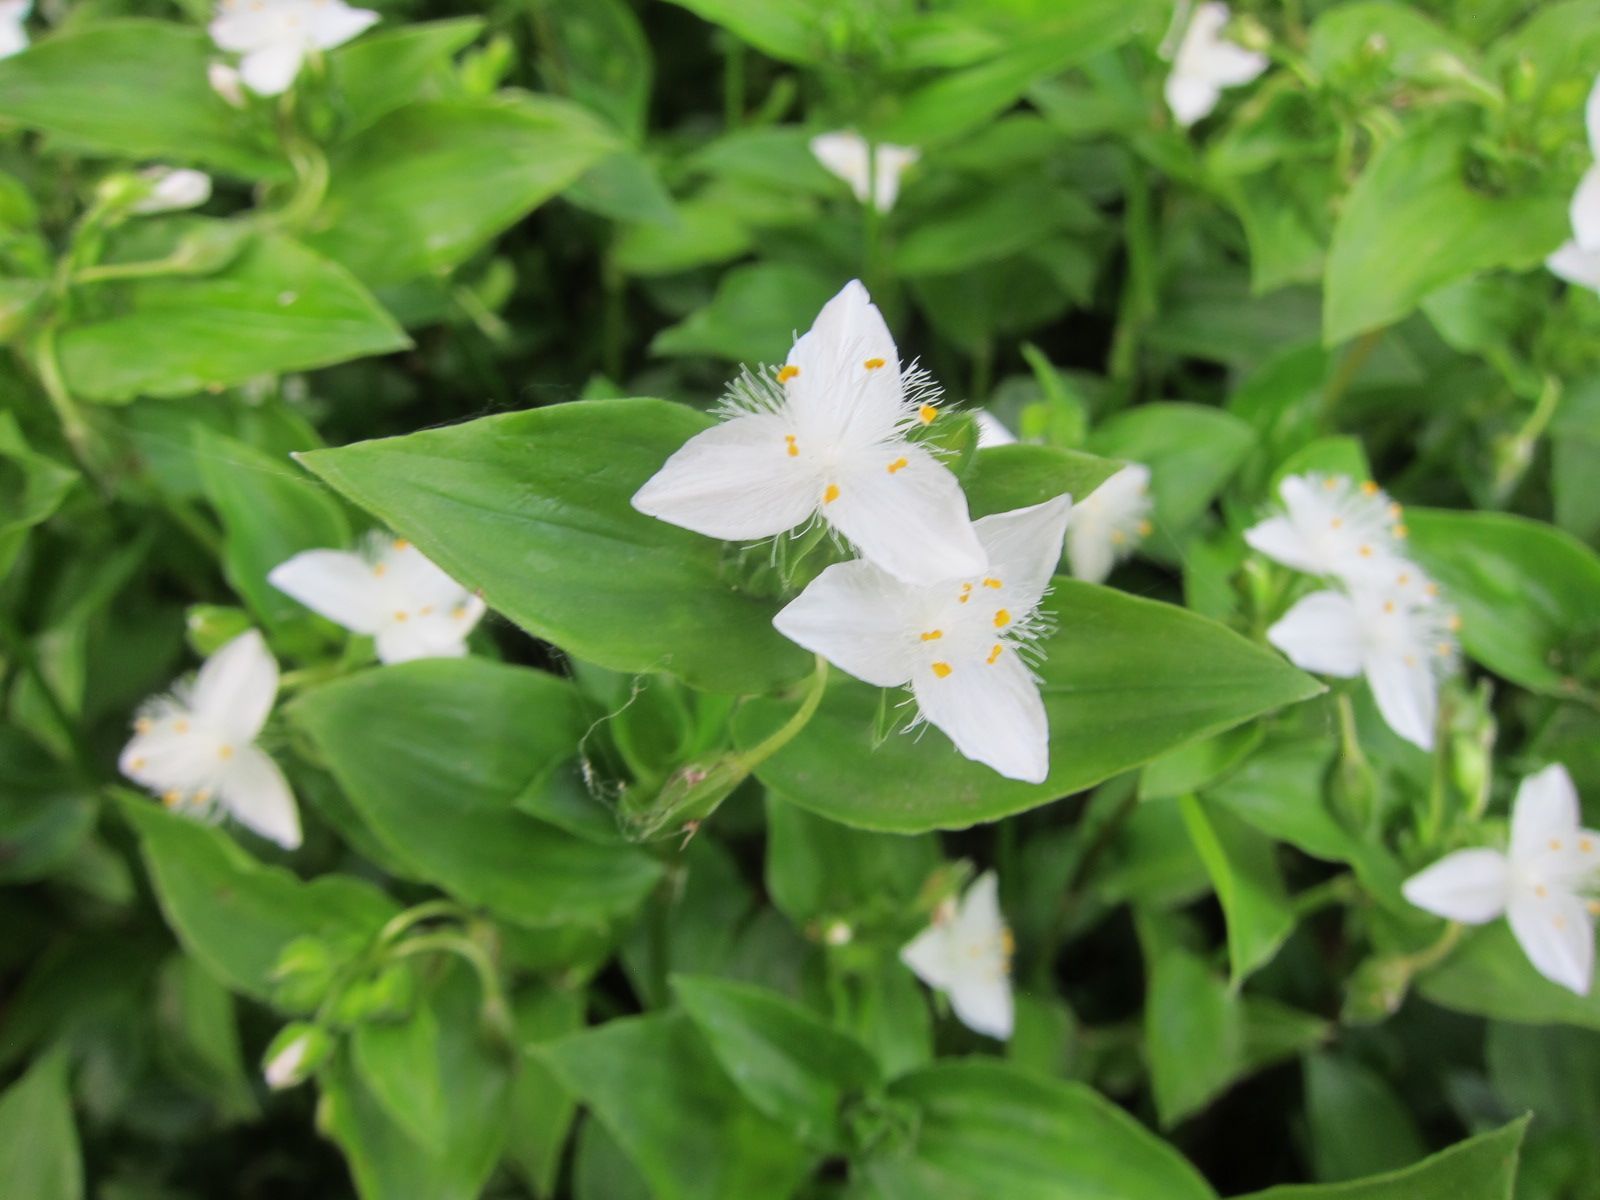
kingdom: Plantae
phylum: Tracheophyta
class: Liliopsida
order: Commelinales
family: Commelinaceae
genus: Tradescantia
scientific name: Tradescantia fluminensis
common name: Wandering-jew
